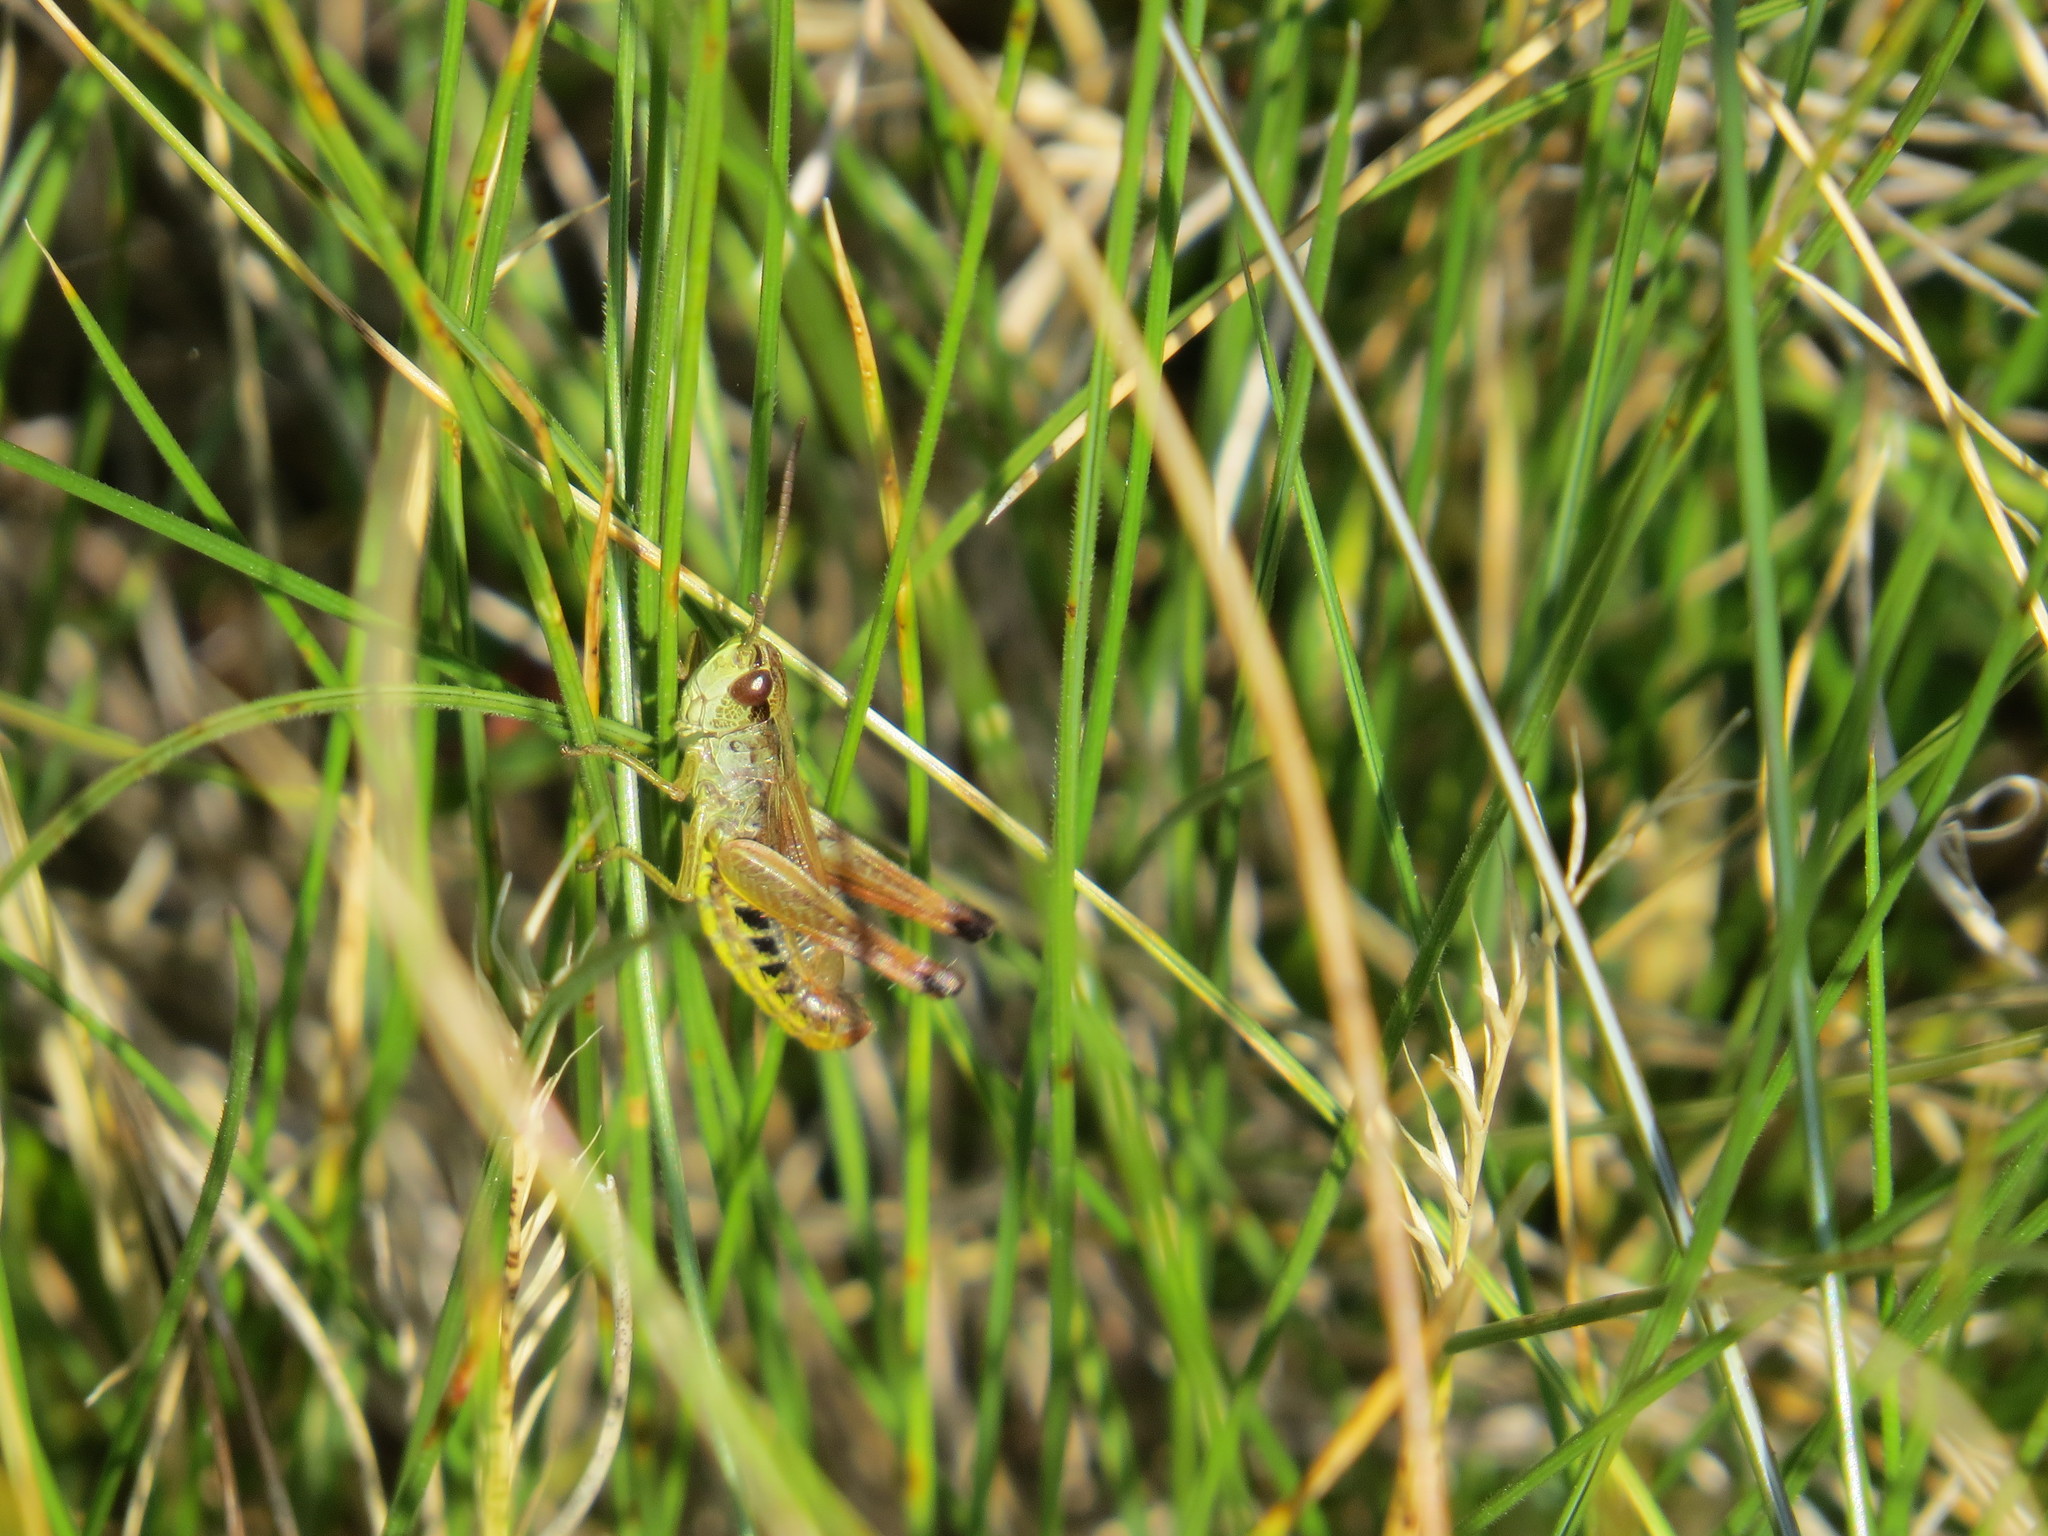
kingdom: Animalia
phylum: Arthropoda
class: Insecta
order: Orthoptera
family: Acrididae
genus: Pseudochorthippus
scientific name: Pseudochorthippus parallelus
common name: Meadow grasshopper
